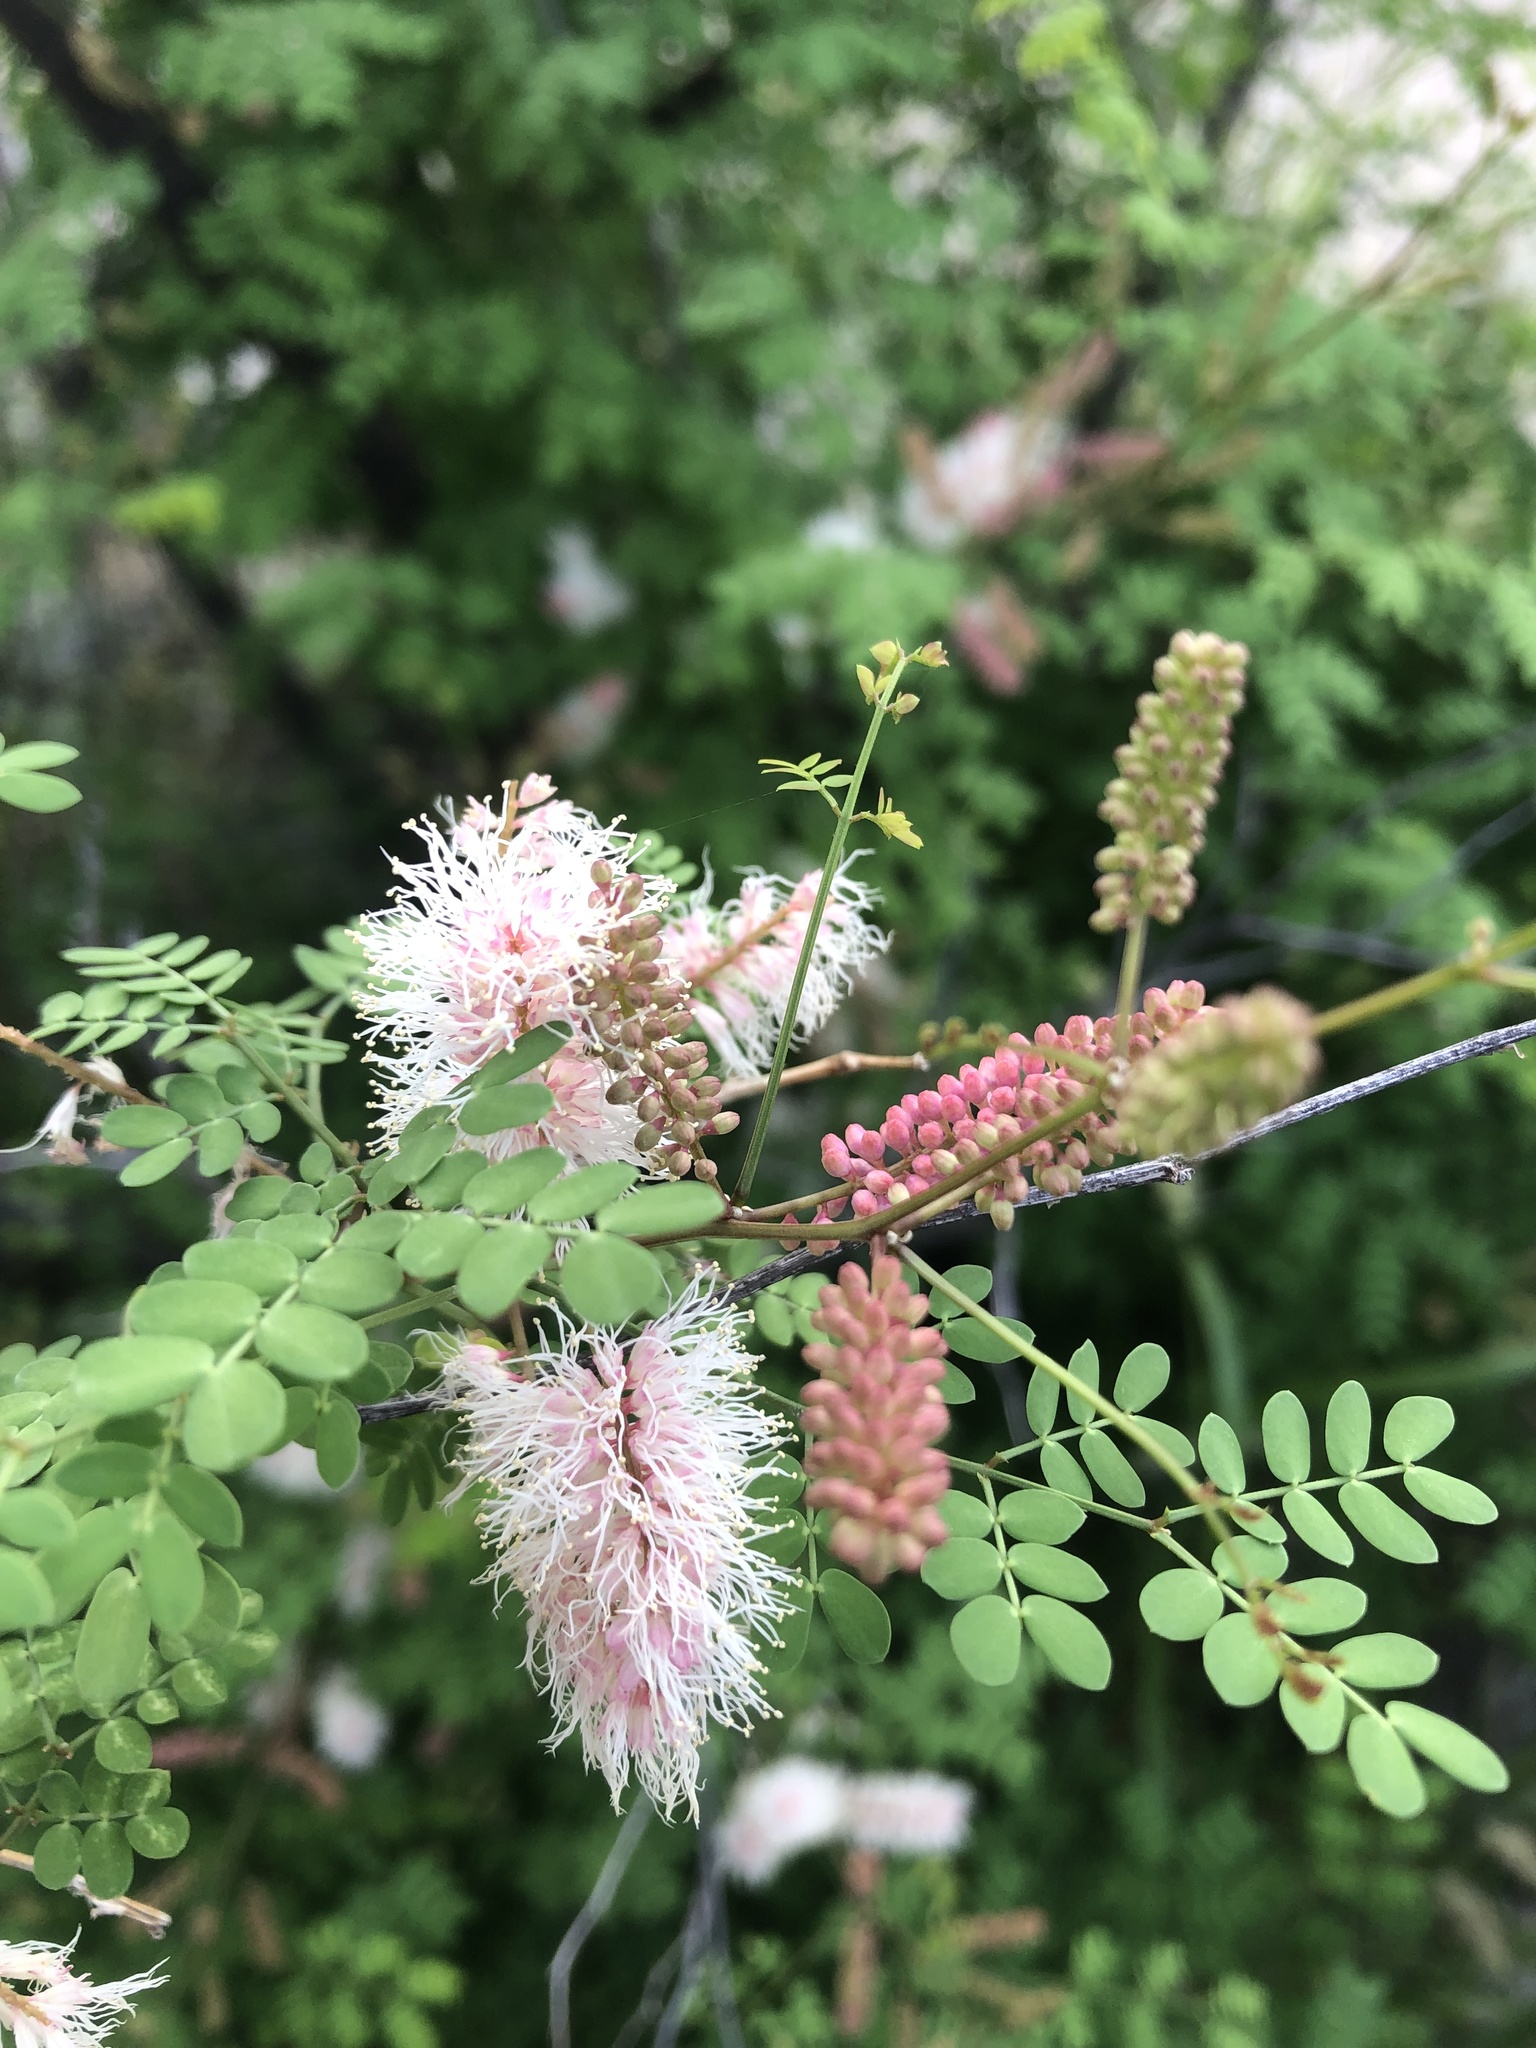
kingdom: Plantae
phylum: Tracheophyta
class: Magnoliopsida
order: Fabales
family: Fabaceae
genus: Mimosa
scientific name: Mimosa distachya
